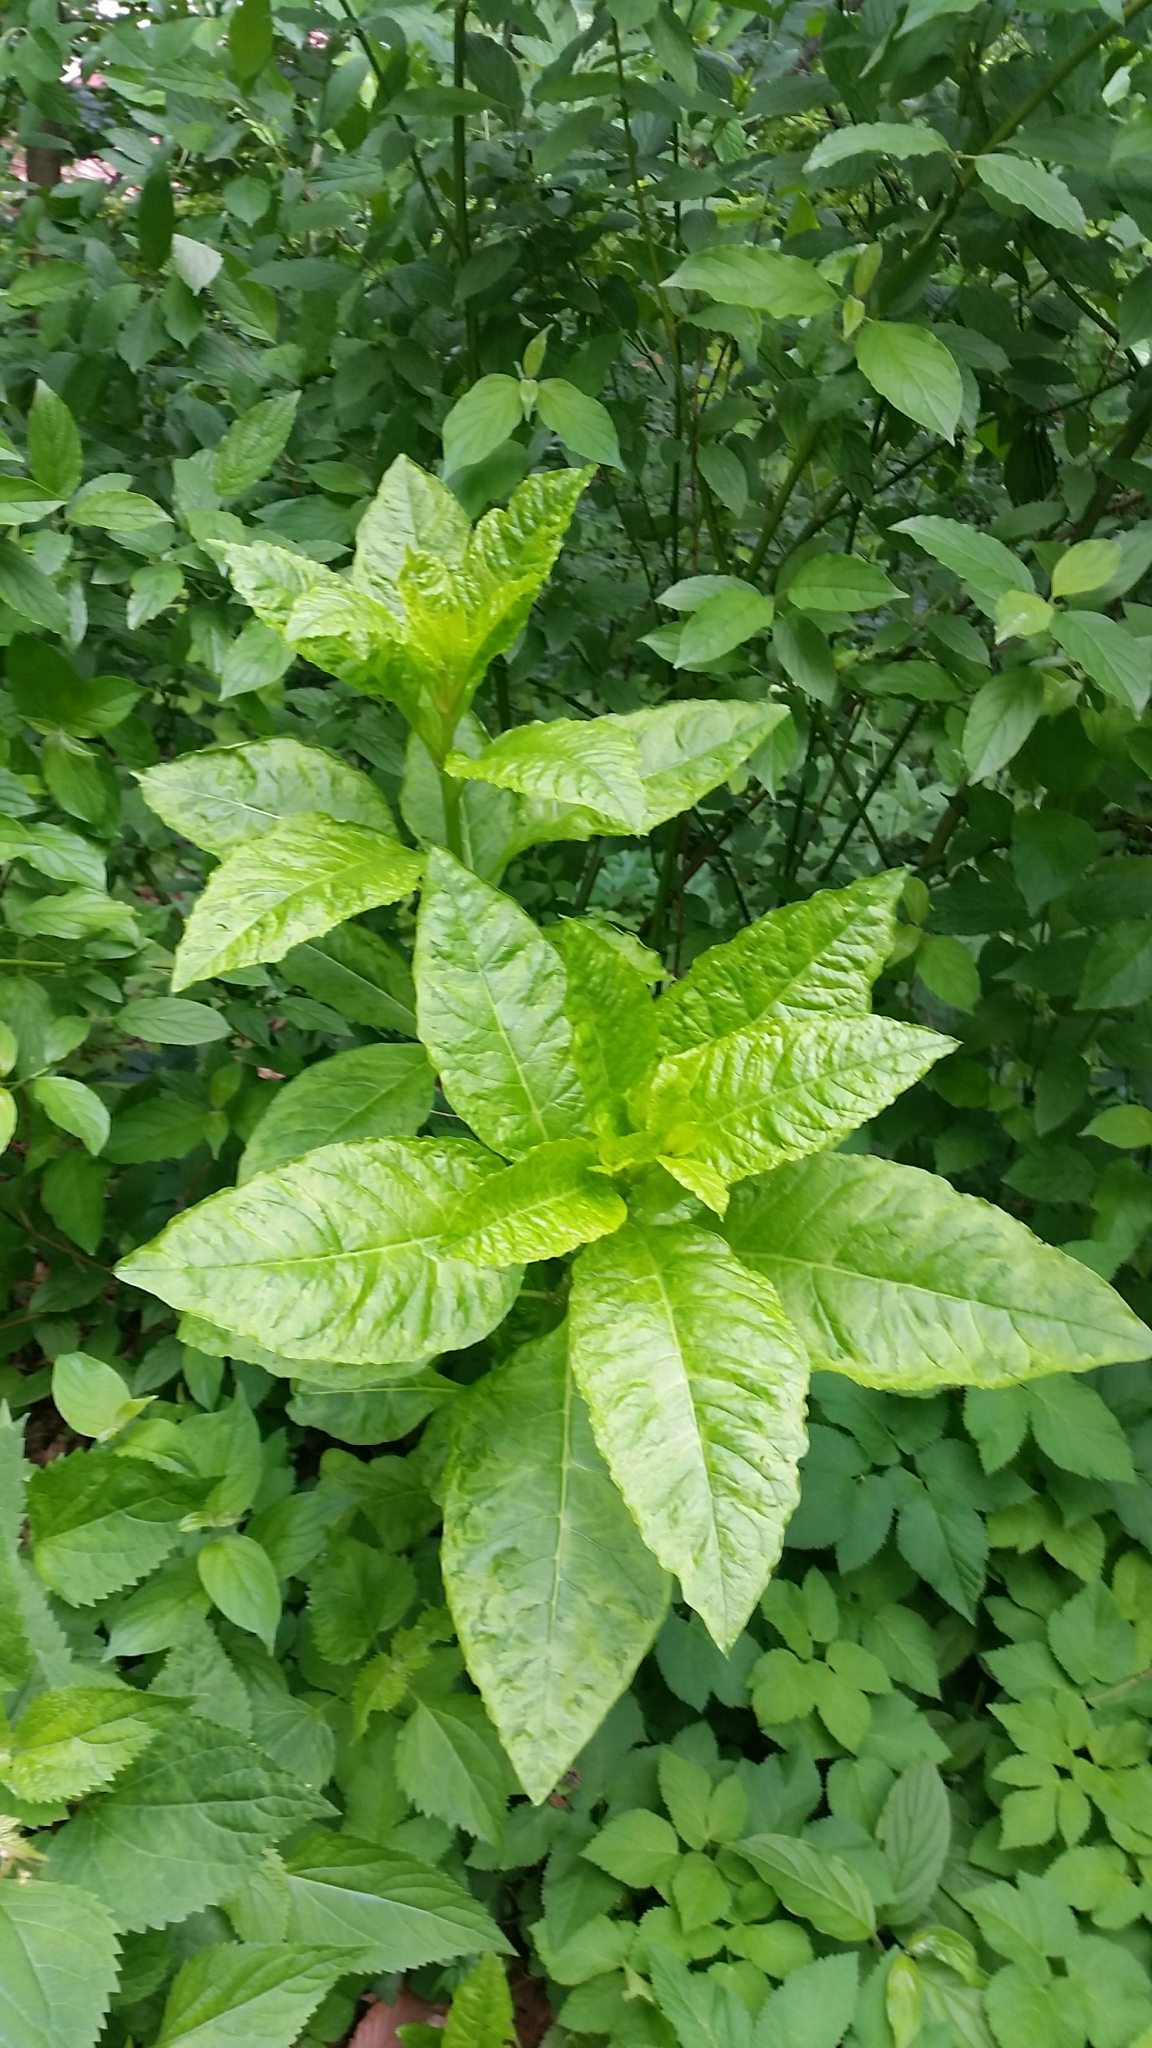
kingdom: Plantae
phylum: Tracheophyta
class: Magnoliopsida
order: Caryophyllales
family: Phytolaccaceae
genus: Phytolacca
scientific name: Phytolacca americana
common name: American pokeweed
